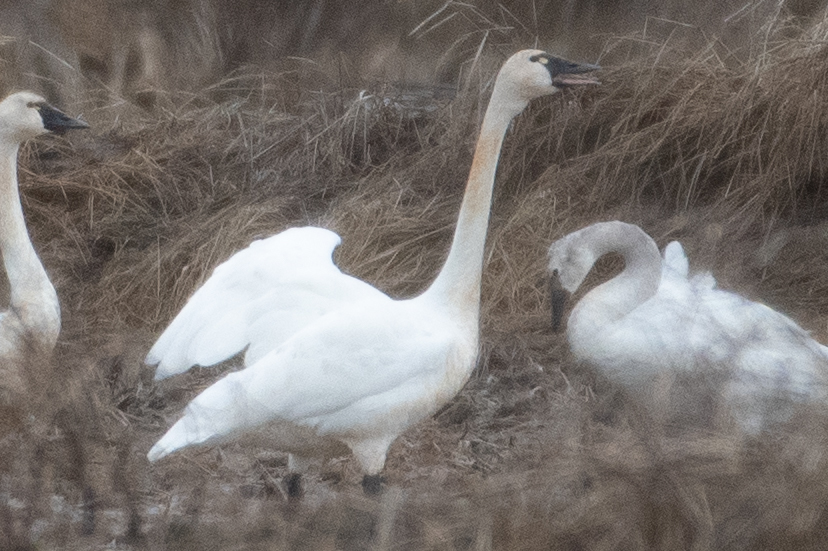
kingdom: Animalia
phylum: Chordata
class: Aves
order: Anseriformes
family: Anatidae
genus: Cygnus
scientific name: Cygnus columbianus
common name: Tundra swan
